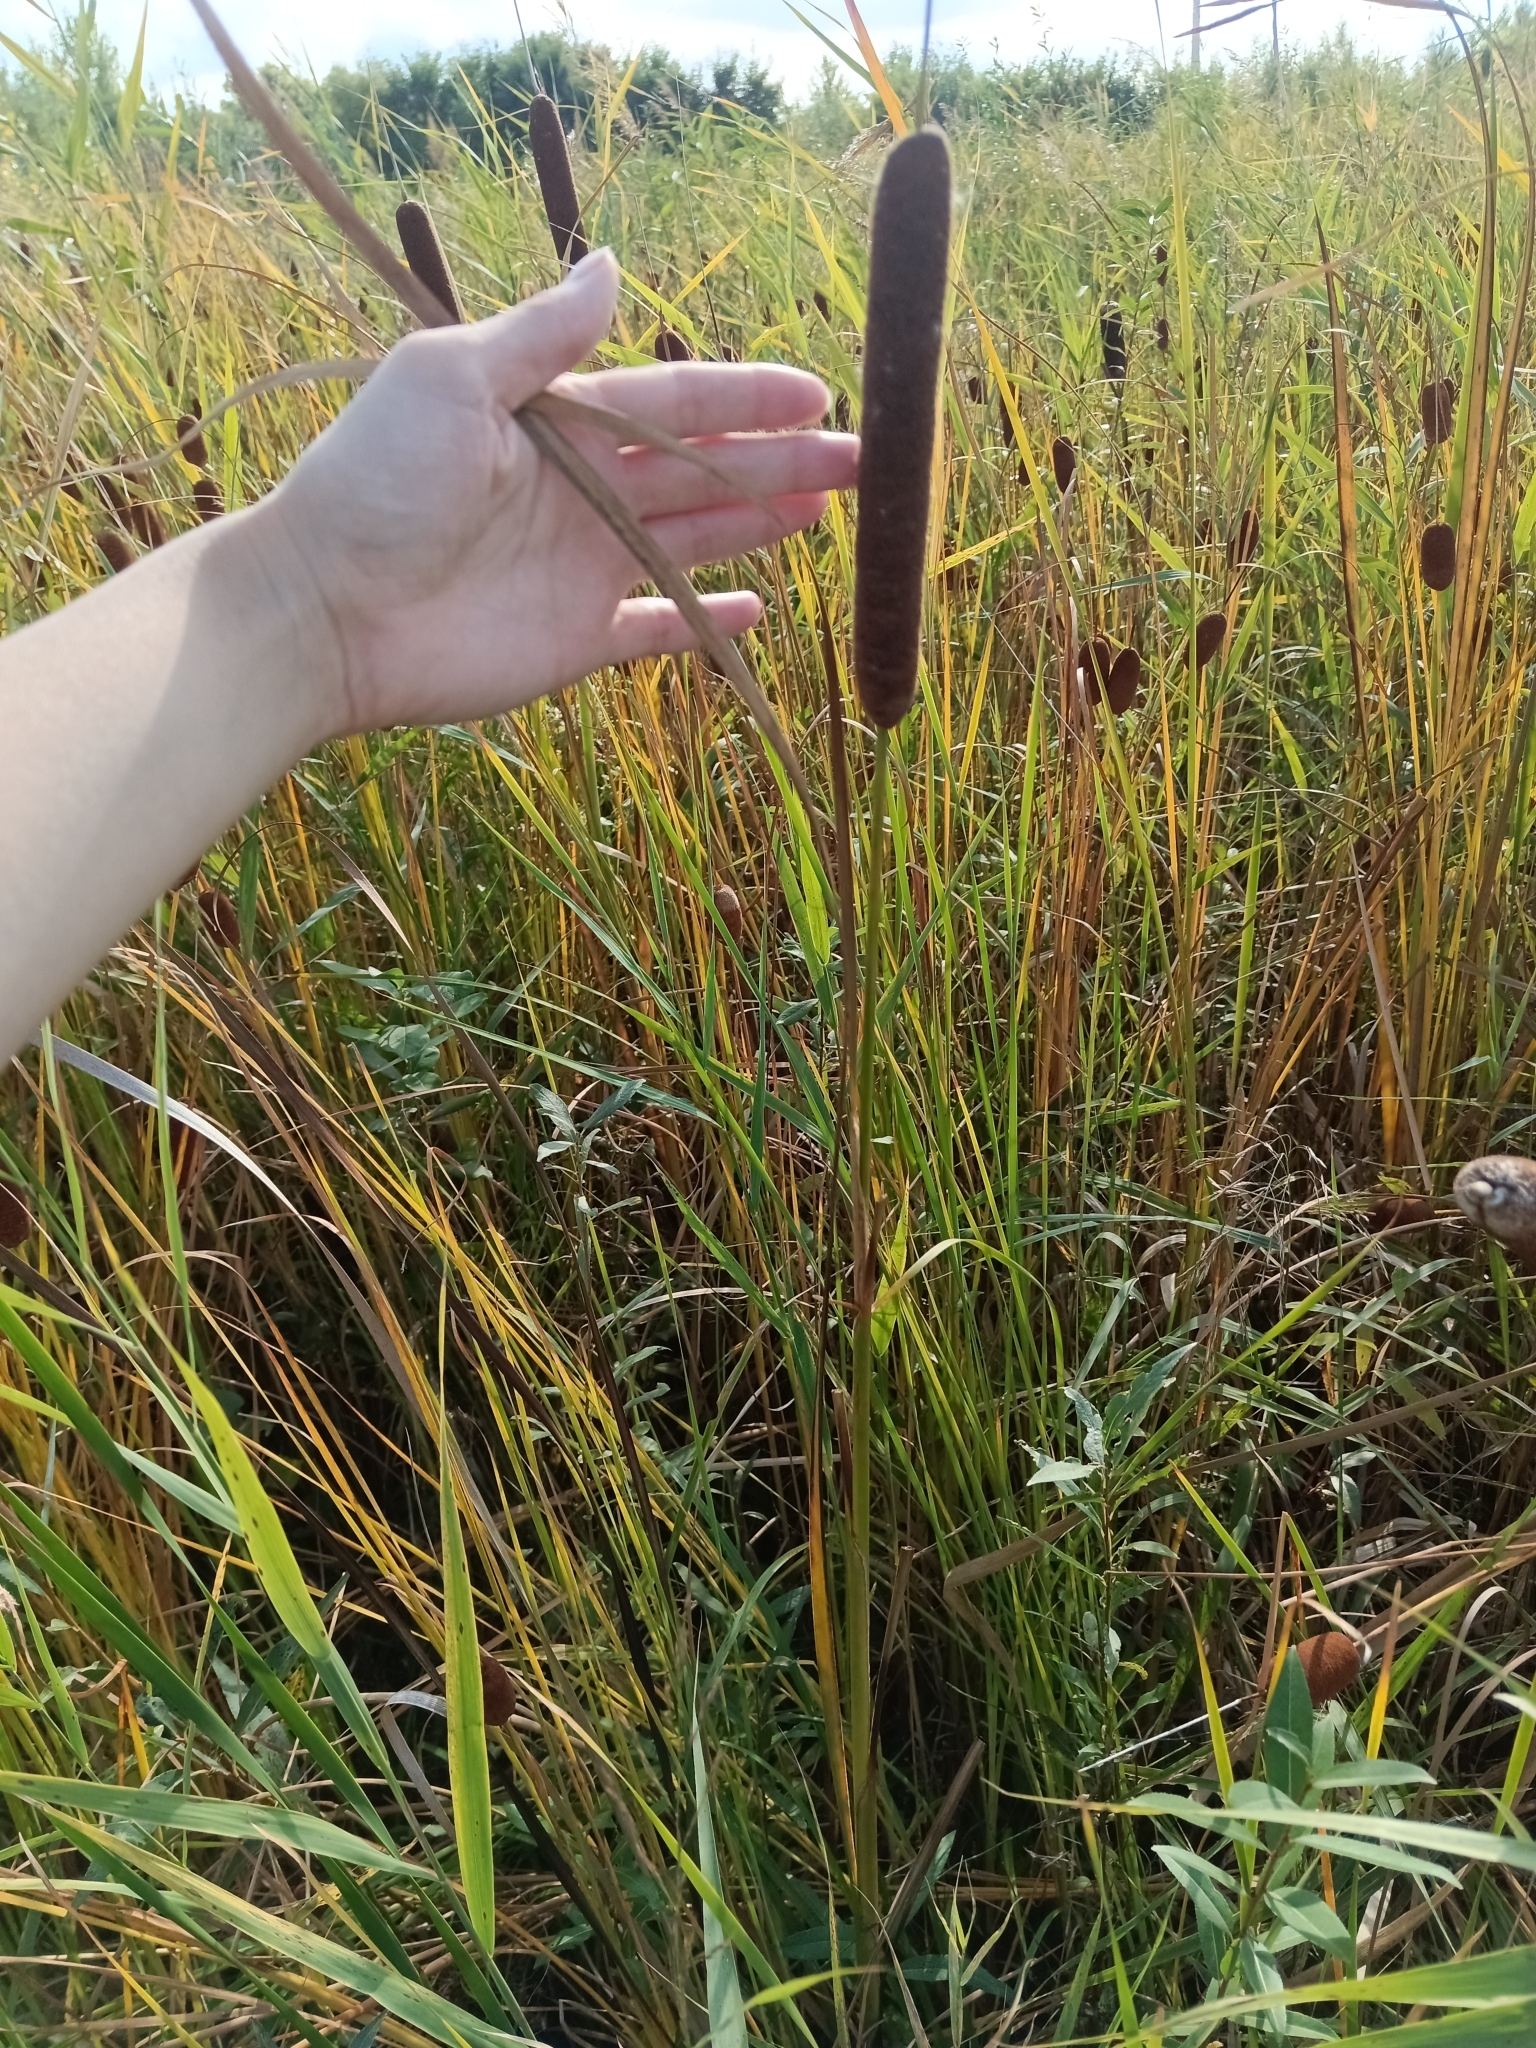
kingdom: Plantae
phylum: Tracheophyta
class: Liliopsida
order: Poales
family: Typhaceae
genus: Typha
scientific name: Typha angustifolia
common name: Lesser bulrush
